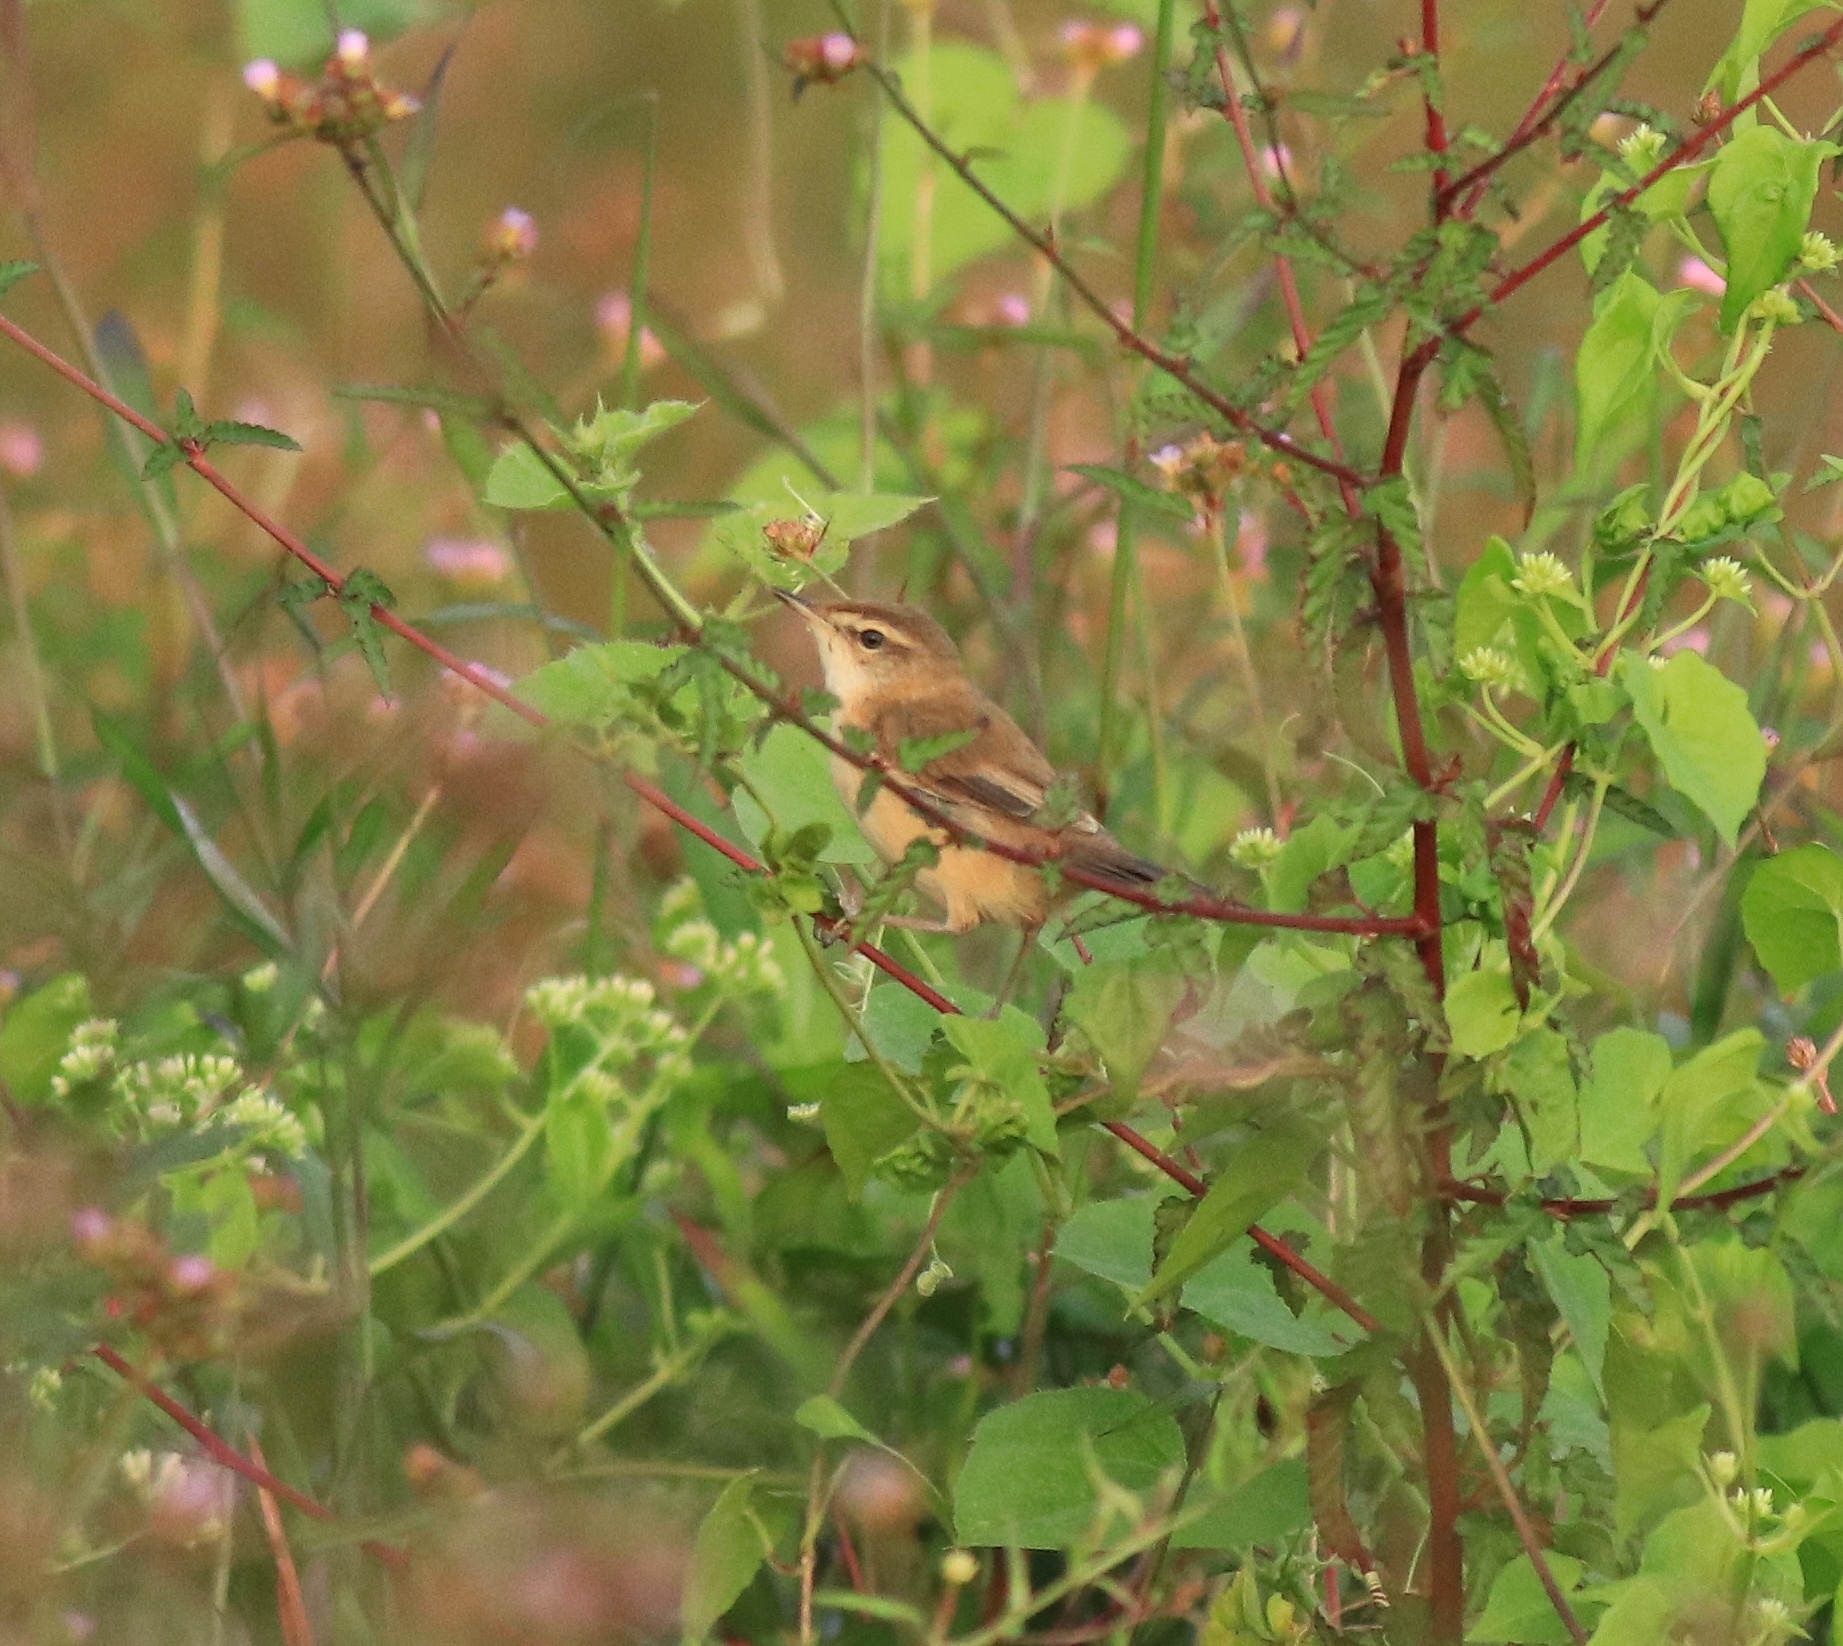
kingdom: Animalia
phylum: Chordata
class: Aves
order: Passeriformes
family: Acrocephalidae
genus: Acrocephalus
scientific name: Acrocephalus agricola
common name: Paddyfield warbler
